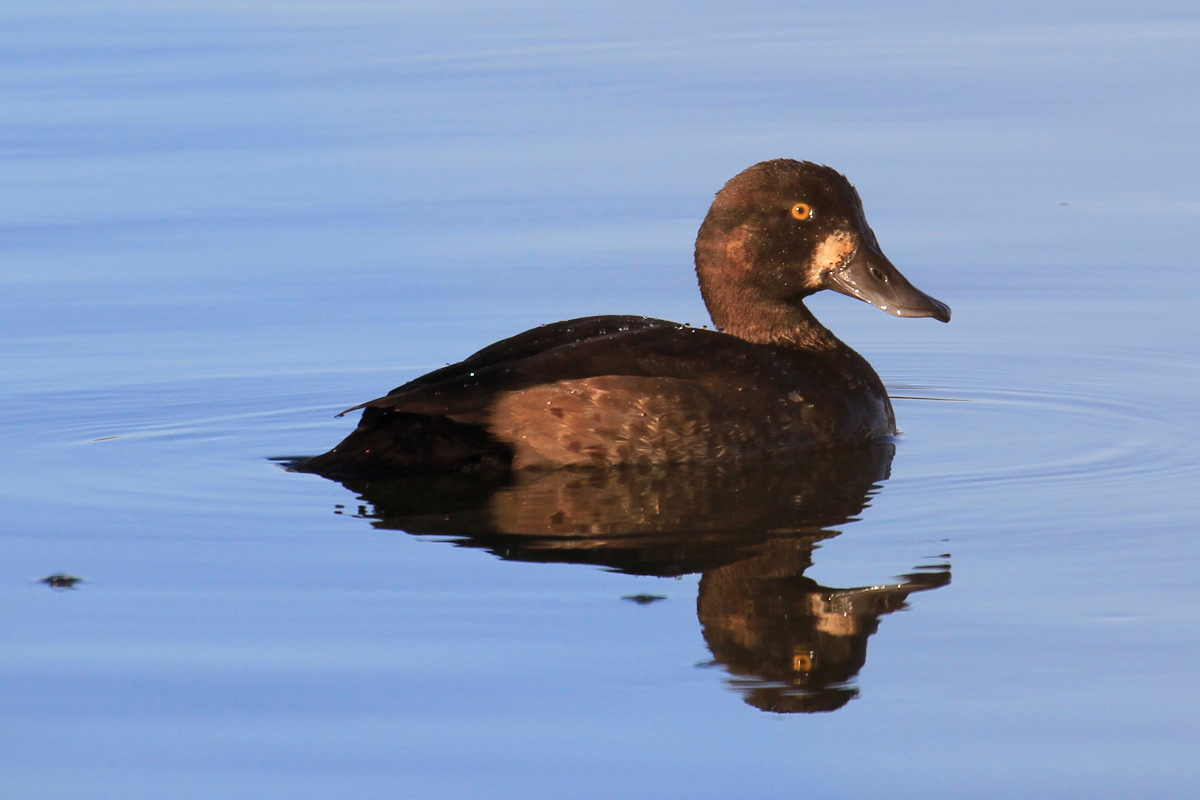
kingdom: Animalia
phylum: Chordata
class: Aves
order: Anseriformes
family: Anatidae
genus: Aythya
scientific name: Aythya marila
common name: Greater scaup
